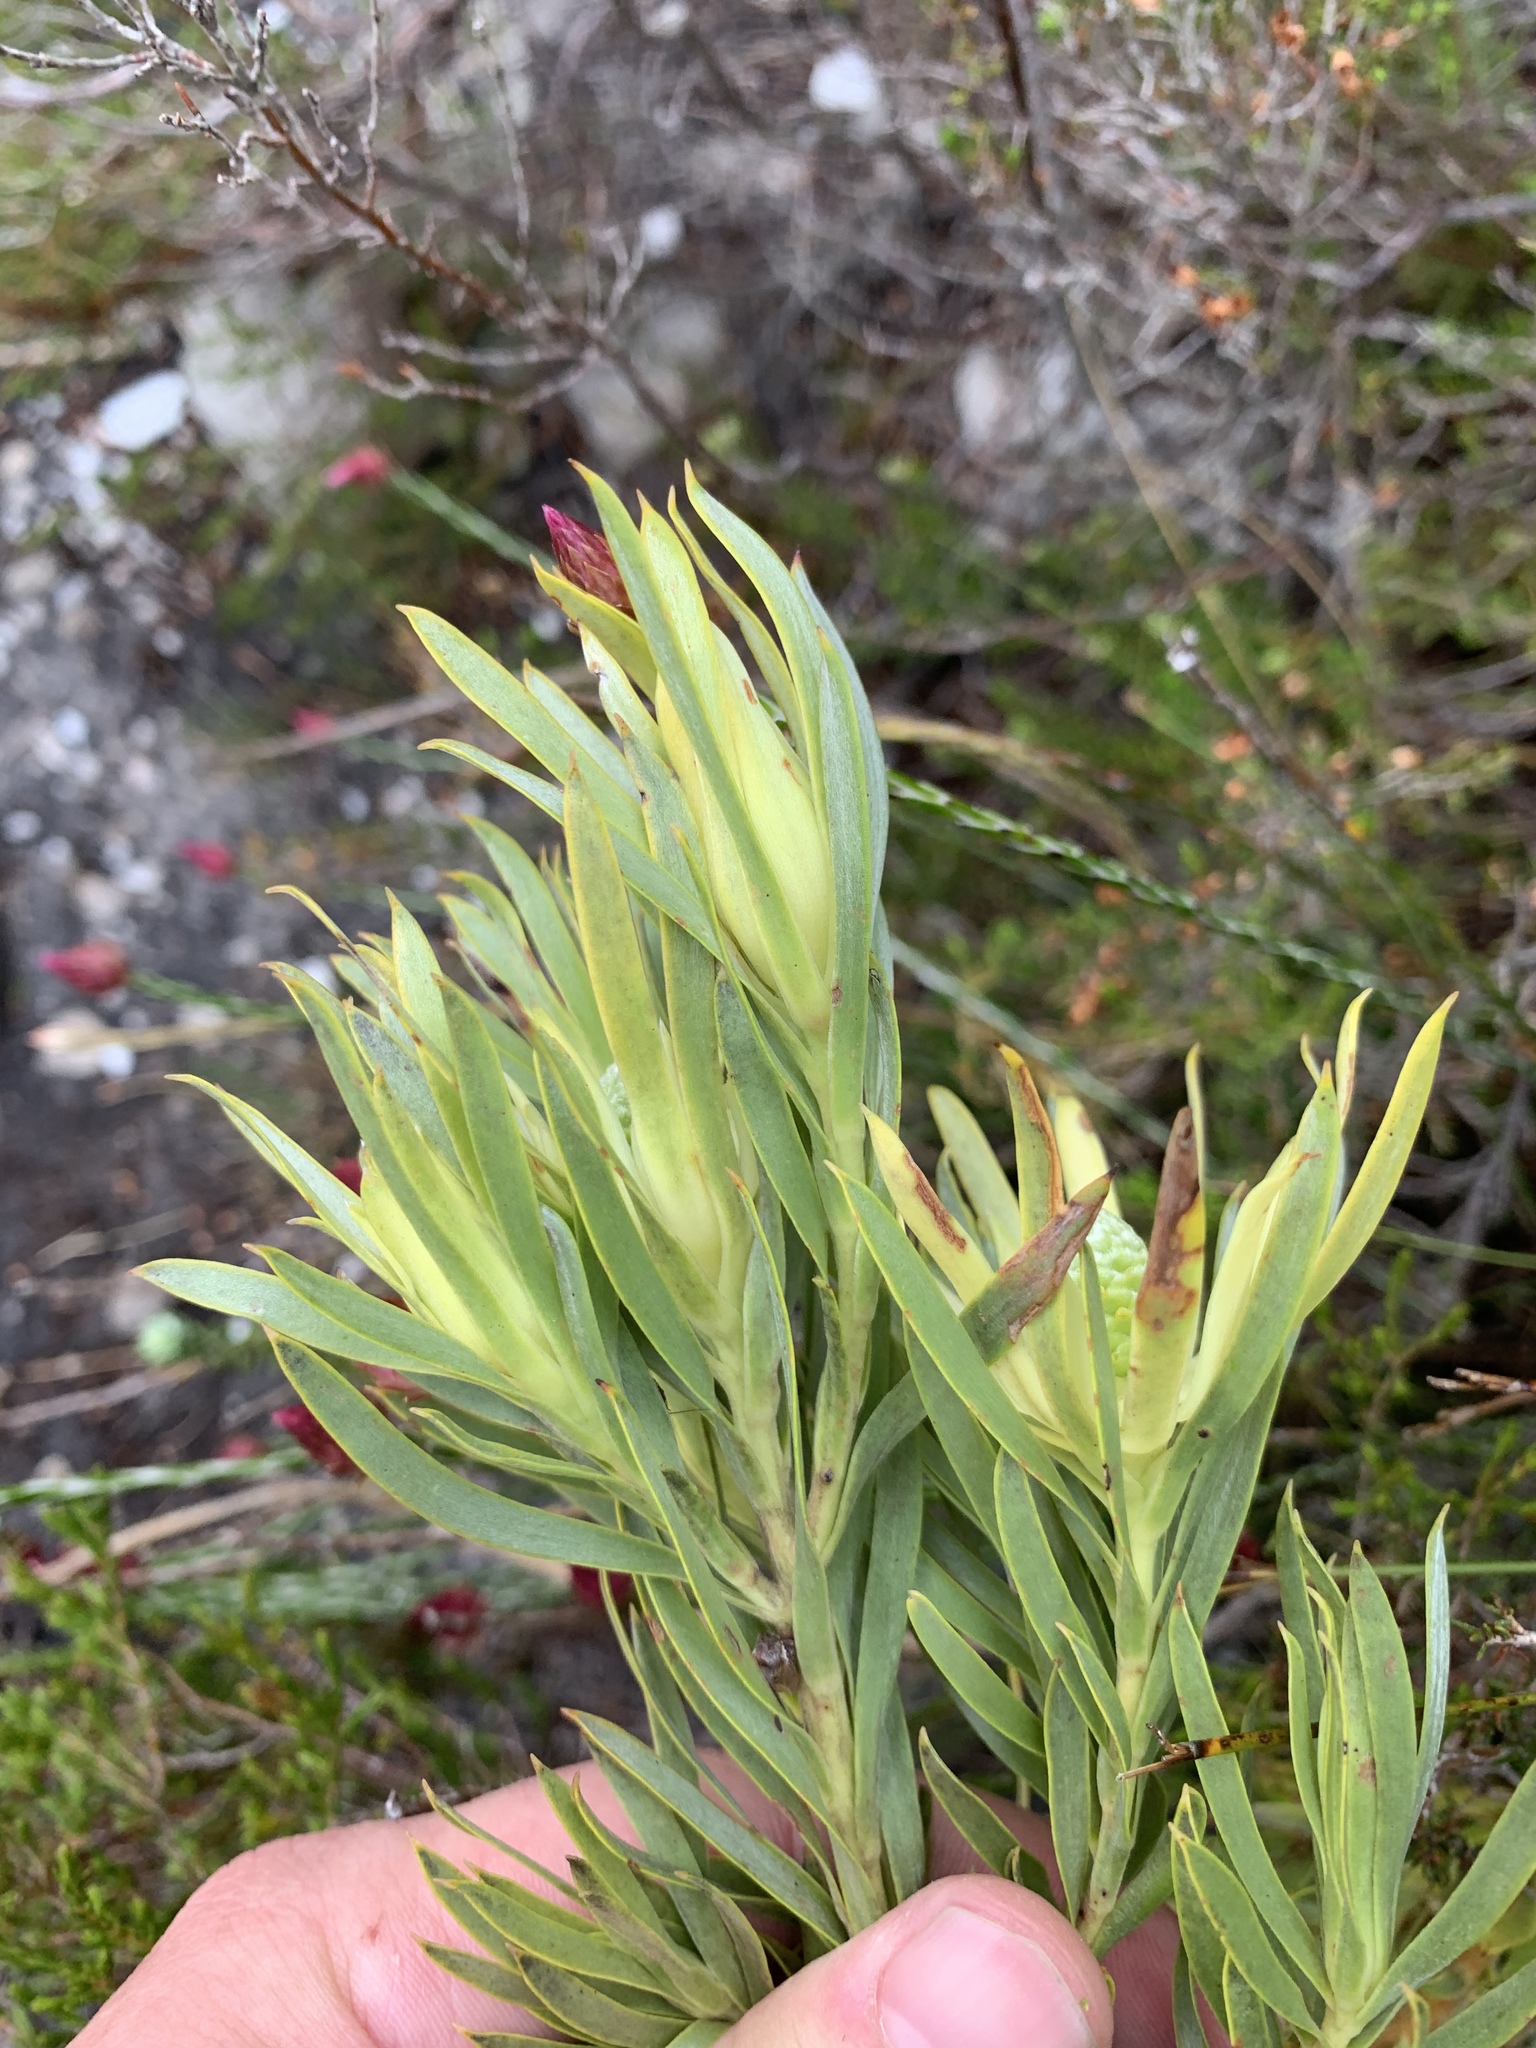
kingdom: Plantae
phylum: Tracheophyta
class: Magnoliopsida
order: Proteales
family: Proteaceae
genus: Leucadendron
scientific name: Leucadendron xanthoconus
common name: Sickle-leaf conebush
